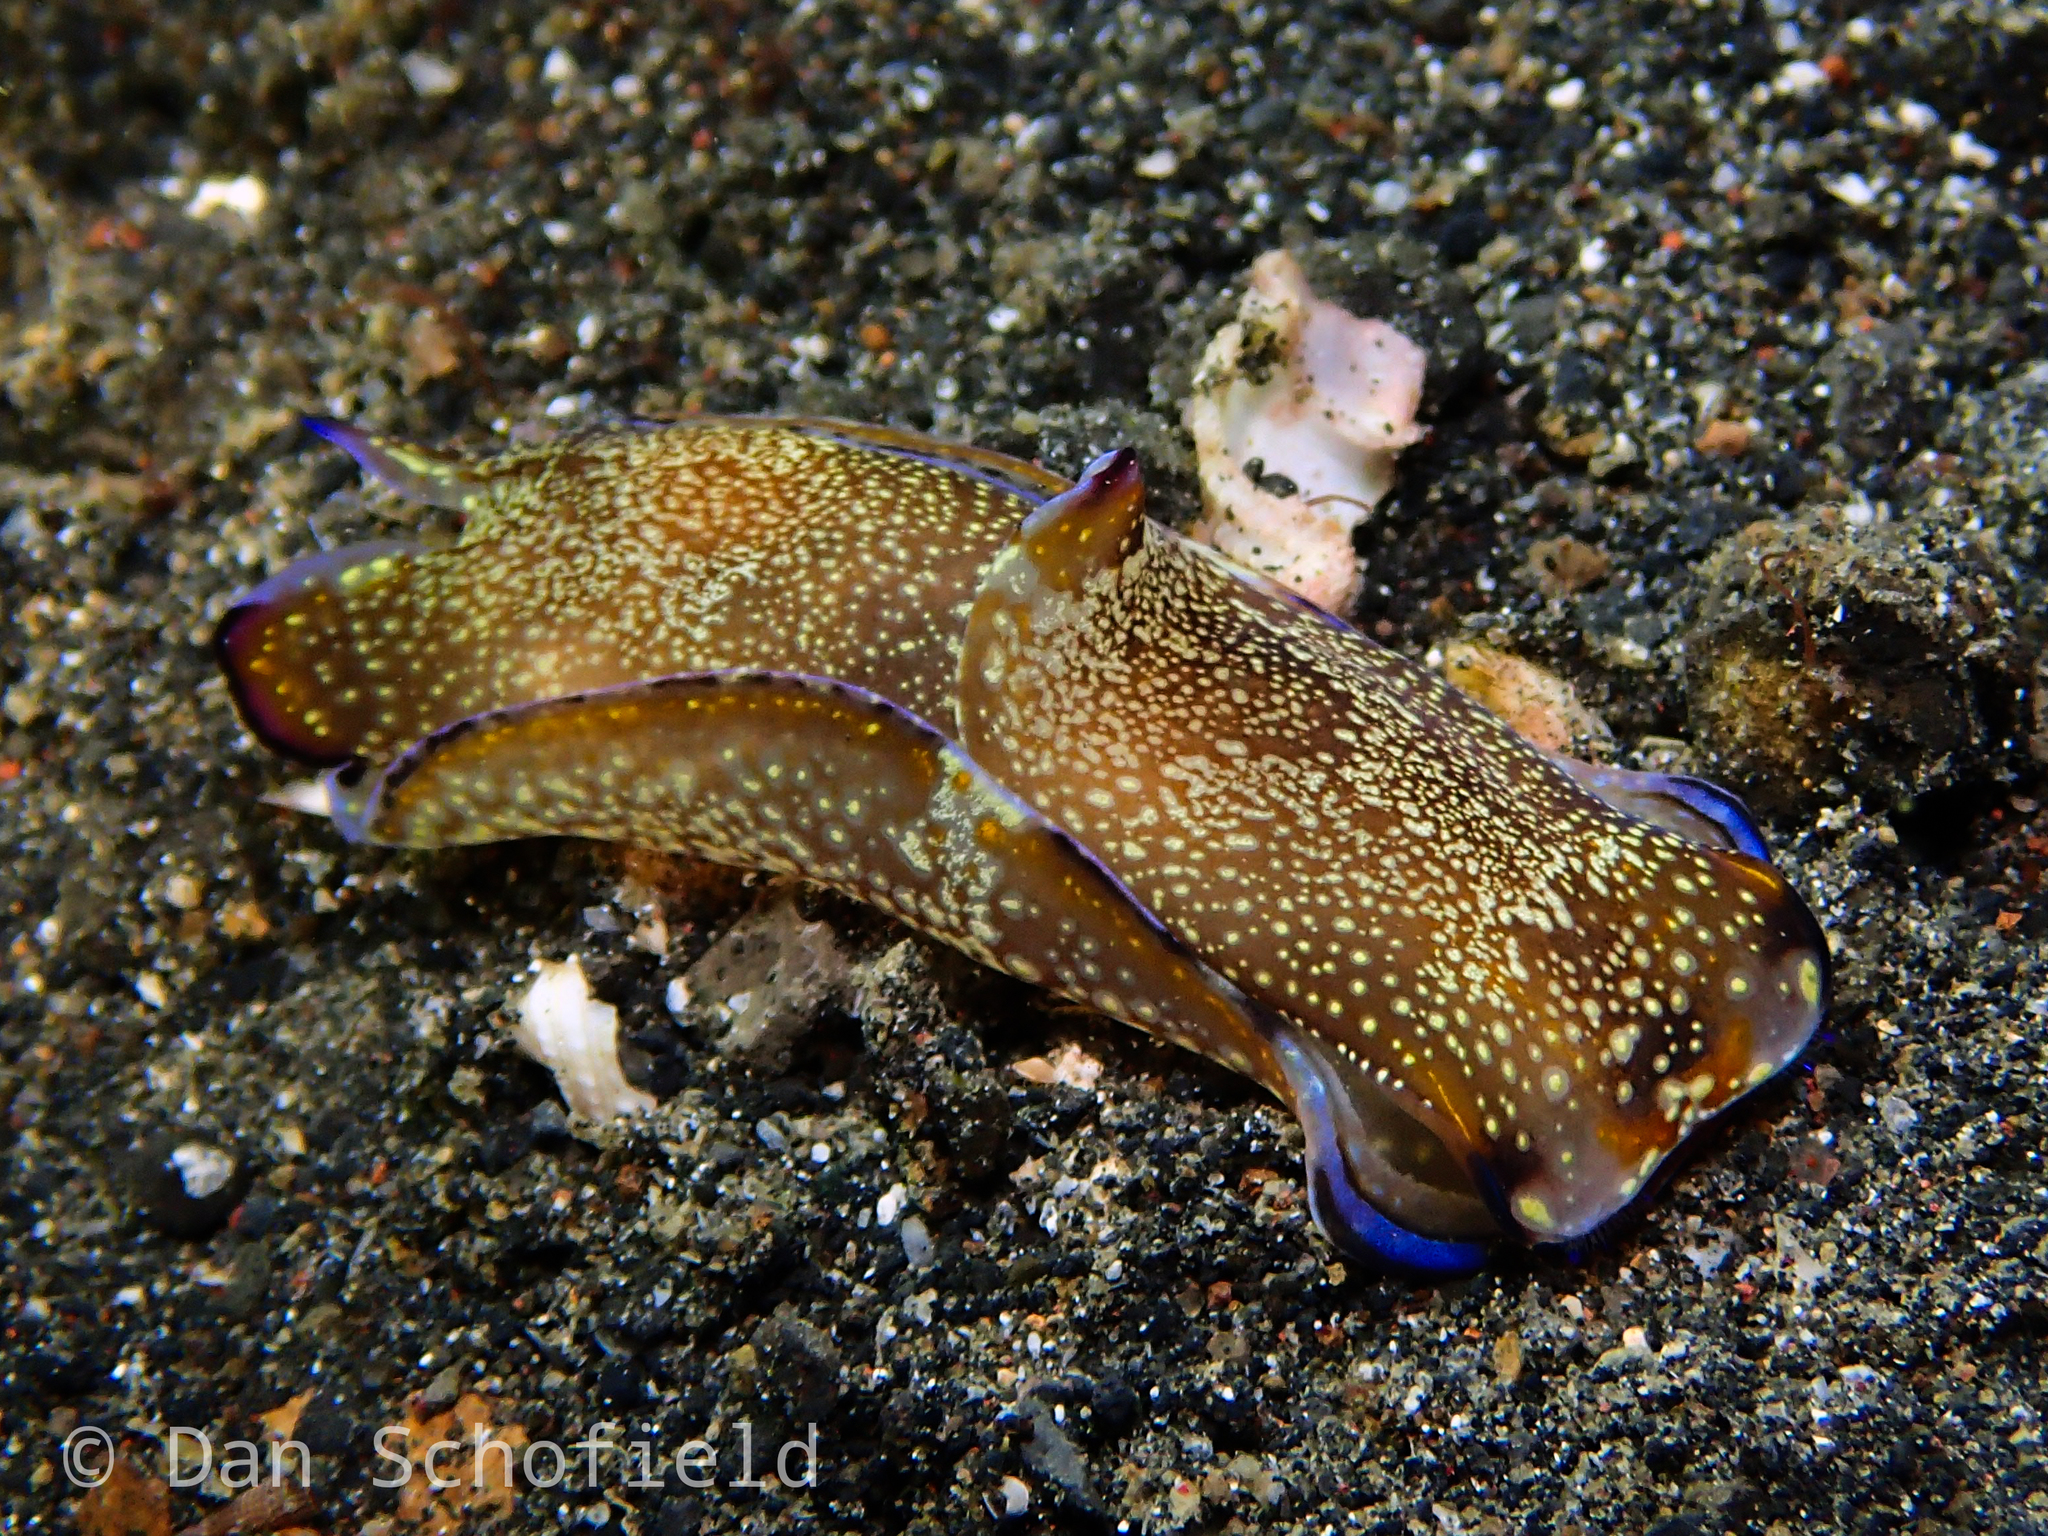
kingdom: Animalia
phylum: Mollusca
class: Gastropoda
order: Cephalaspidea
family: Aglajidae
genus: Philinopsis
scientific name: Philinopsis speciosa
